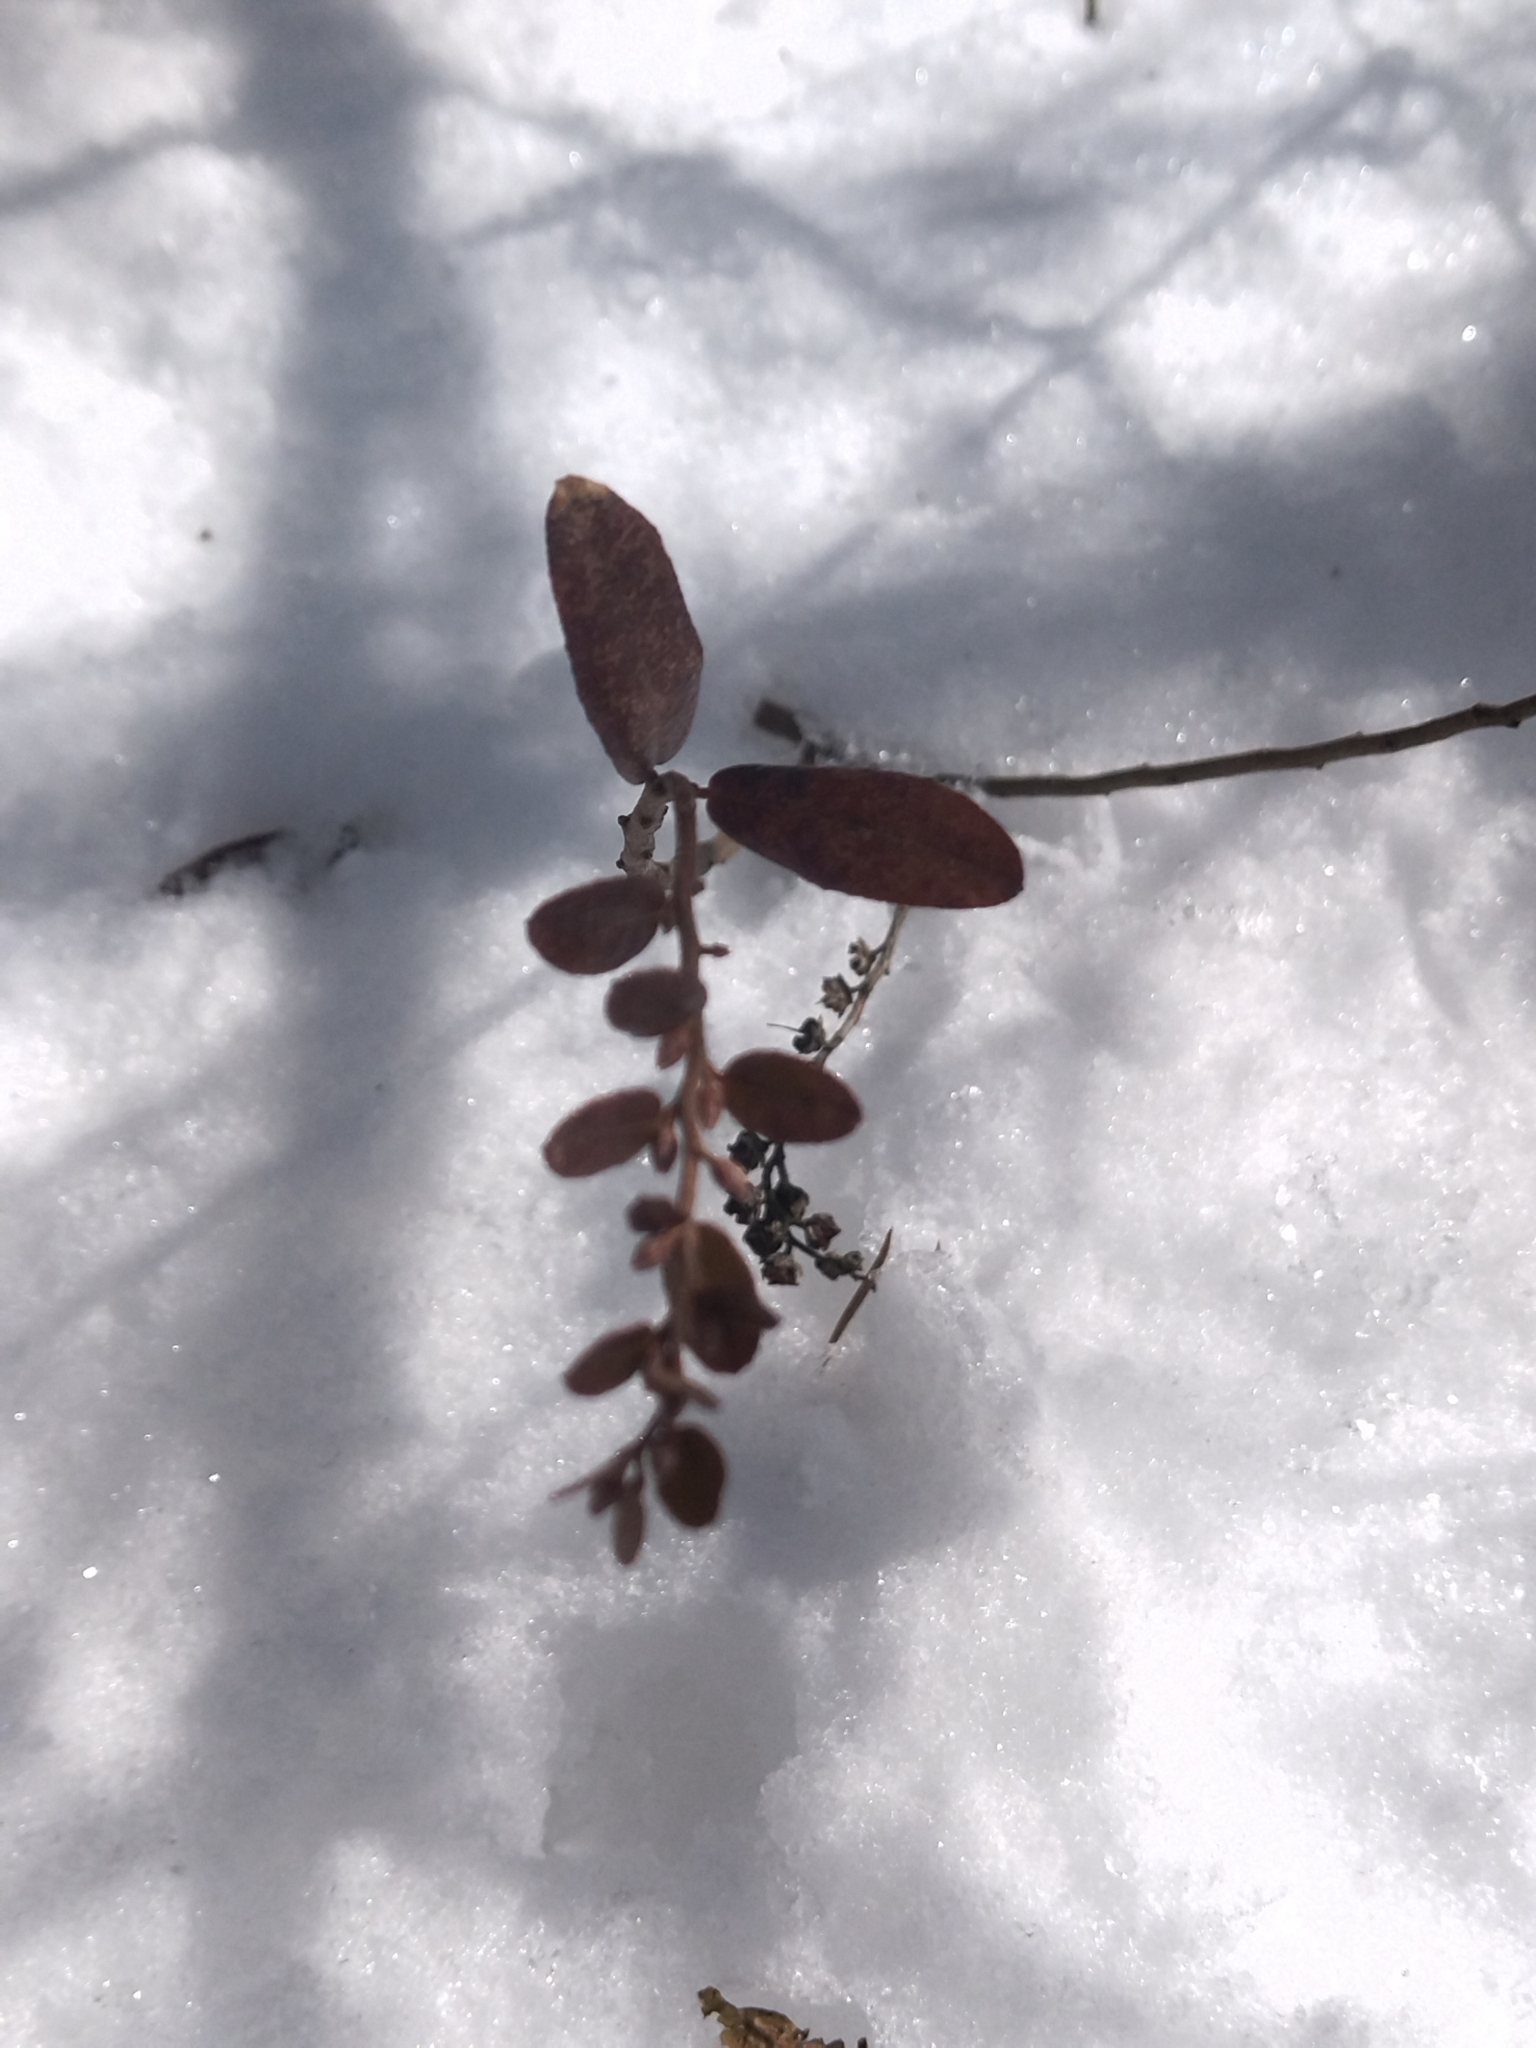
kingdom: Plantae
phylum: Tracheophyta
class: Magnoliopsida
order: Ericales
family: Ericaceae
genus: Chamaedaphne
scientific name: Chamaedaphne calyculata
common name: Leatherleaf
